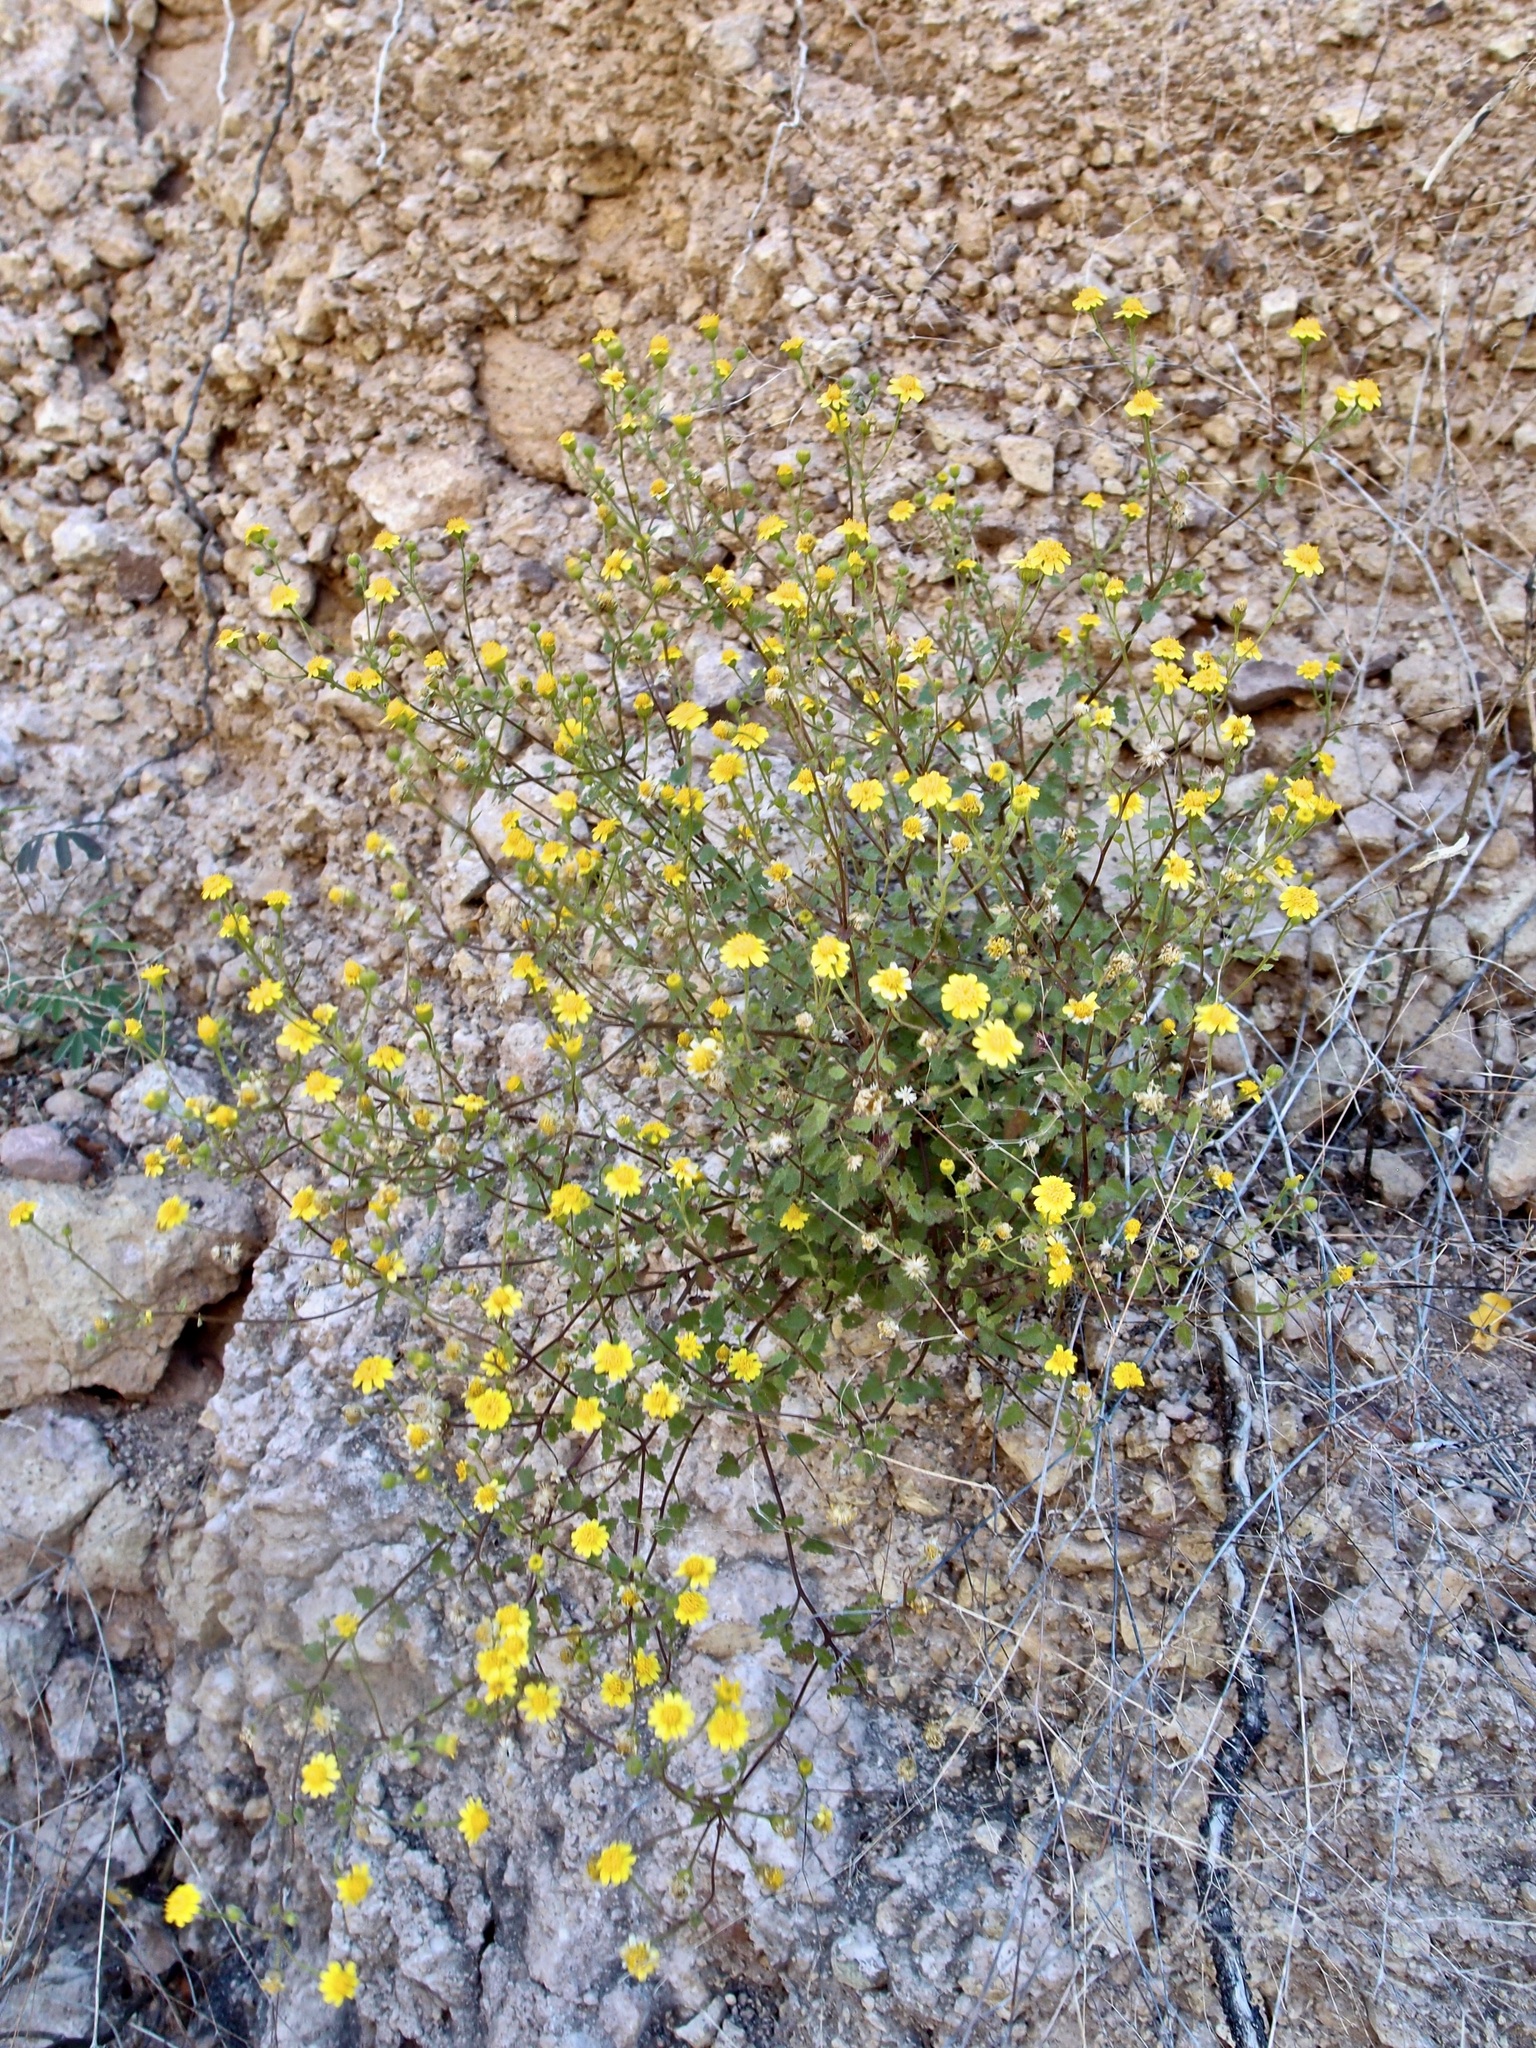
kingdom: Plantae
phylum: Tracheophyta
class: Magnoliopsida
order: Asterales
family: Asteraceae
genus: Perityle
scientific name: Perityle californica
